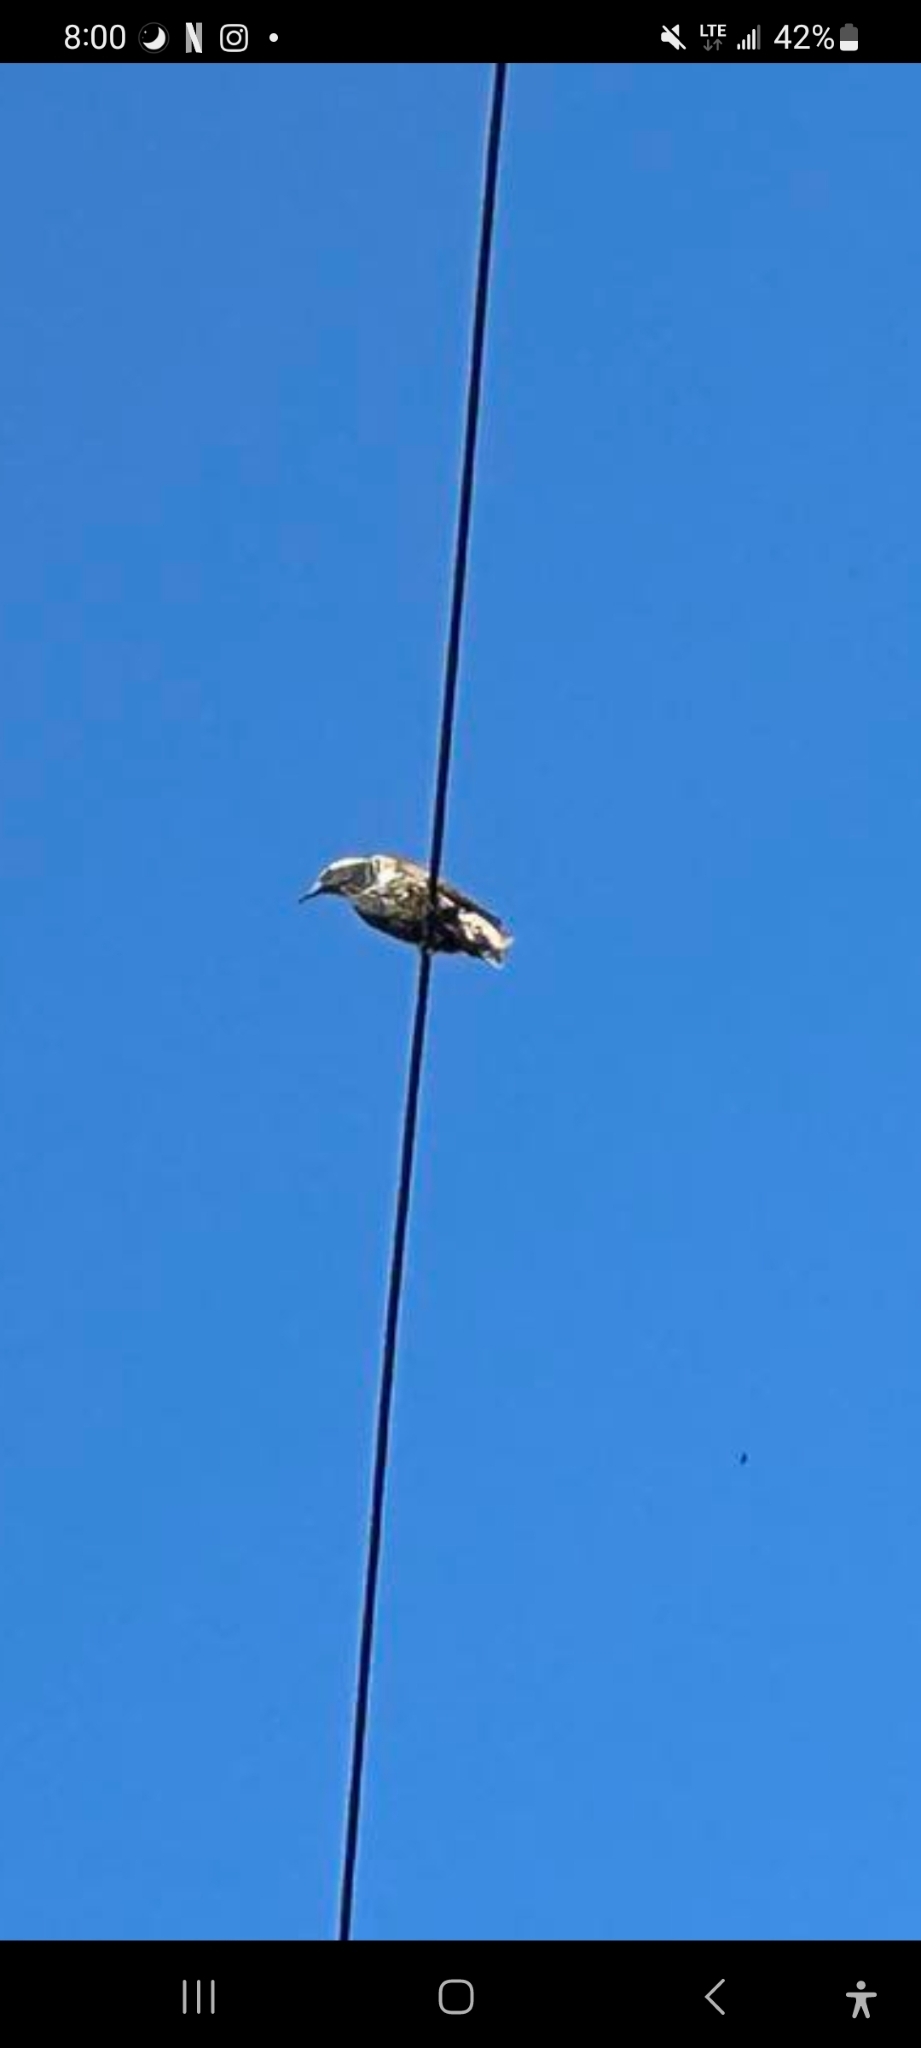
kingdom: Animalia
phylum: Chordata
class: Aves
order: Passeriformes
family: Sturnidae
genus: Sturnus
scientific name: Sturnus vulgaris
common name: Common starling
